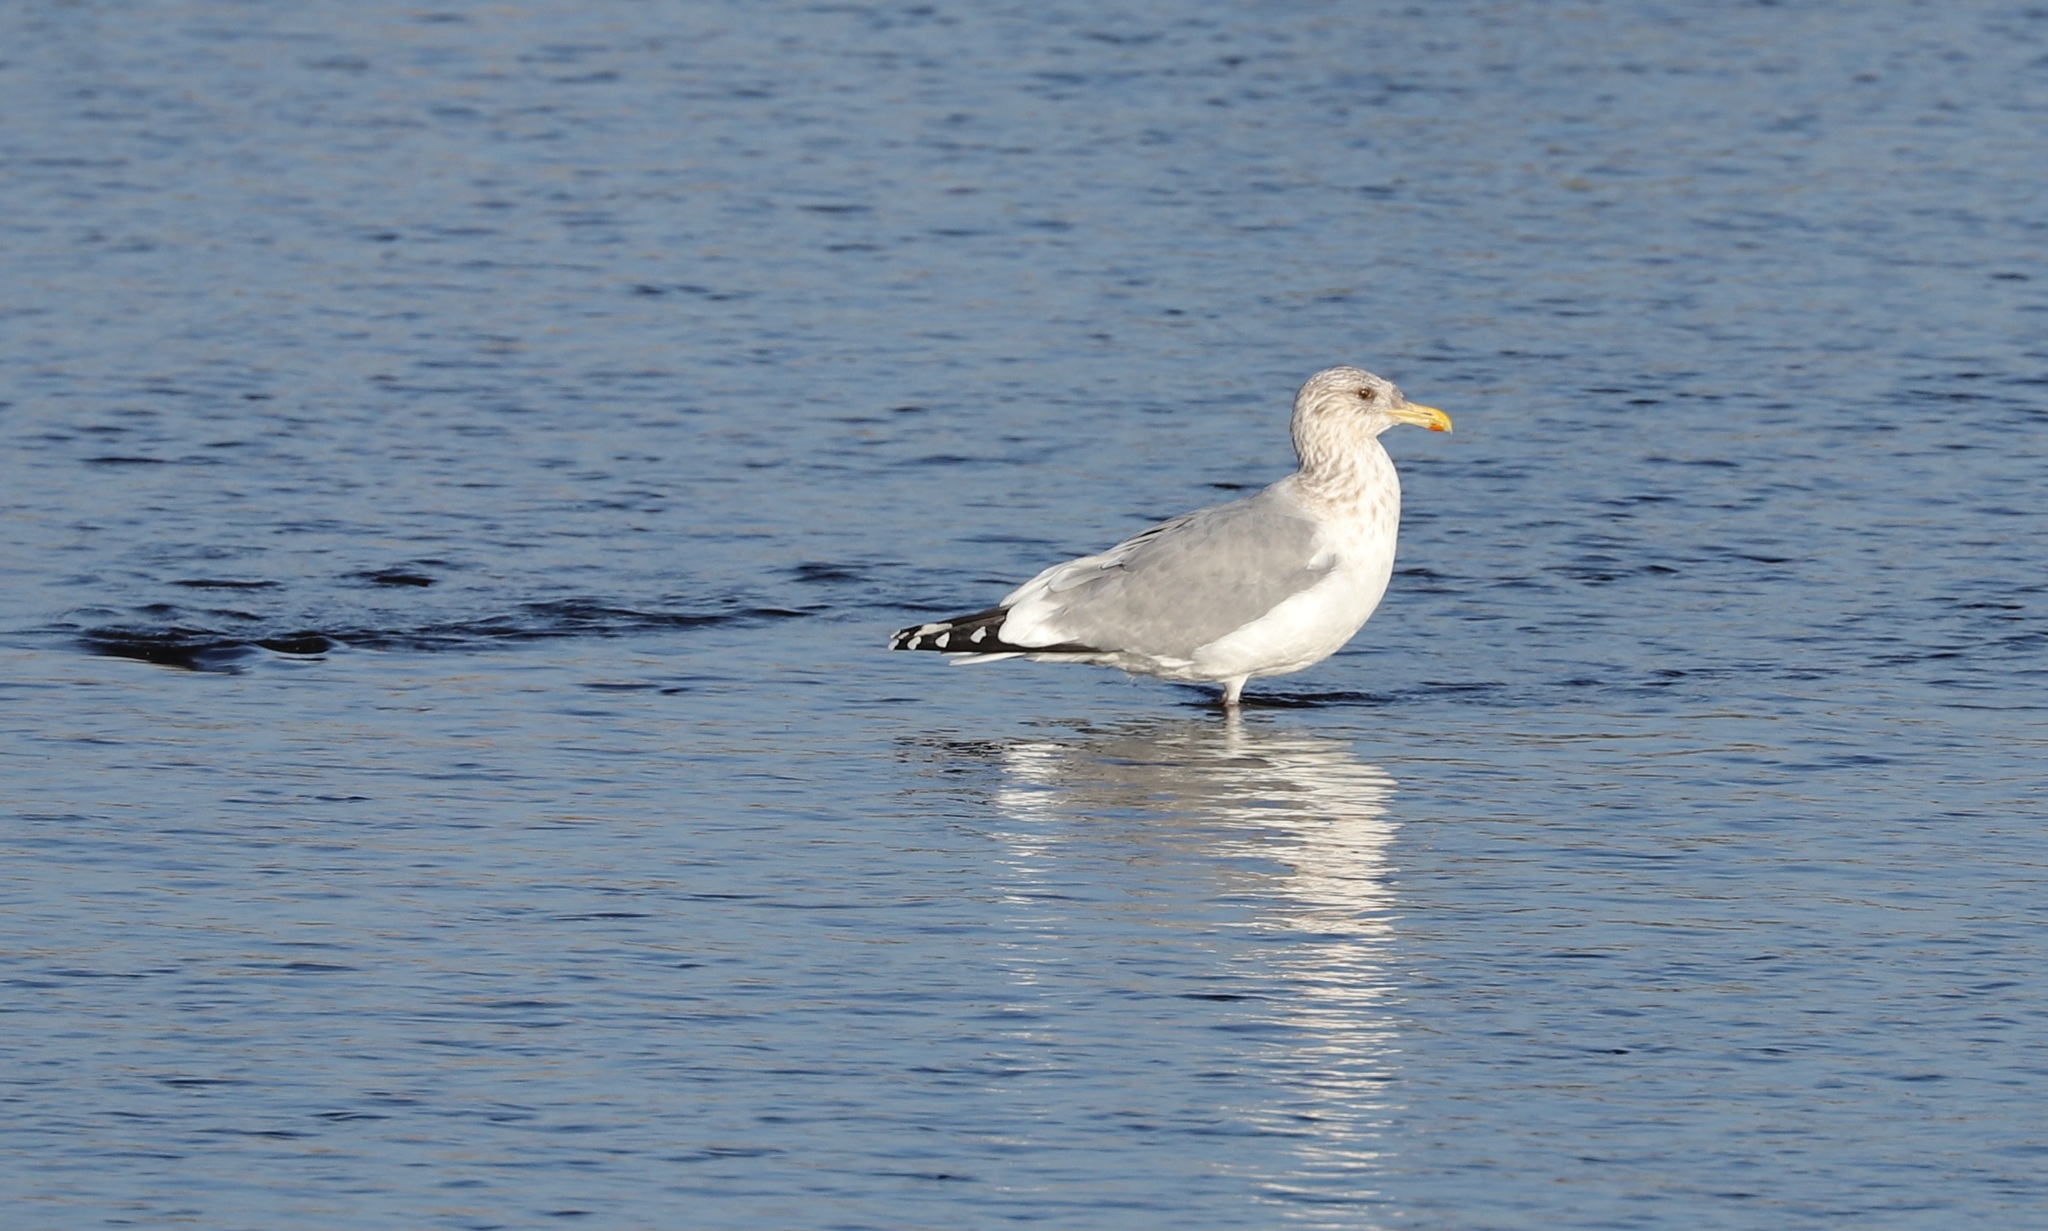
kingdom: Animalia
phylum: Chordata
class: Aves
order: Charadriiformes
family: Laridae
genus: Larus
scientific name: Larus vegae
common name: Vega gull
